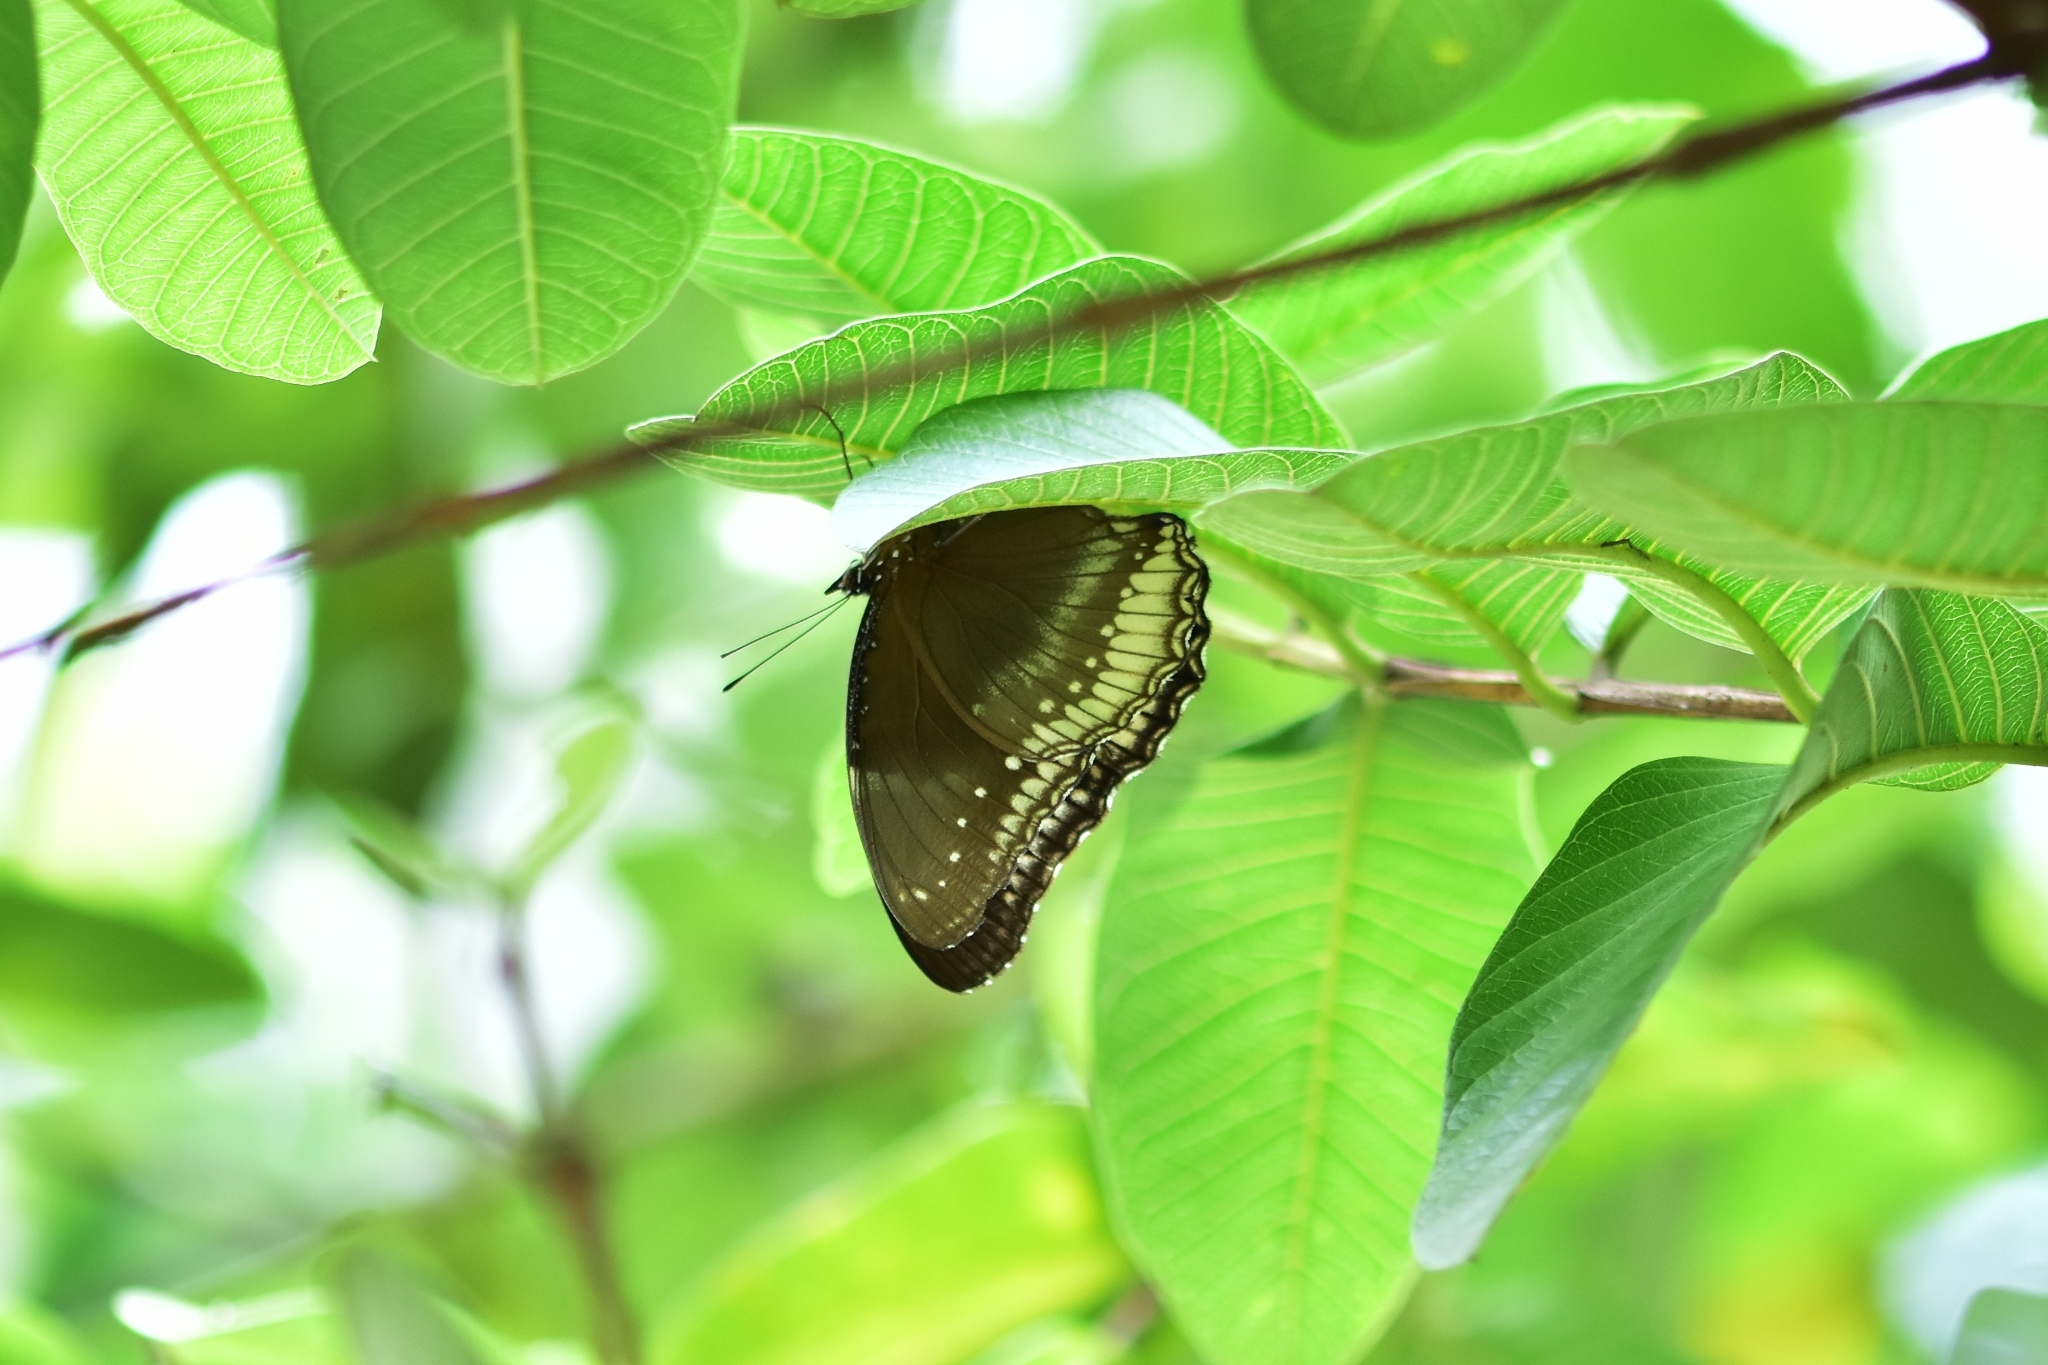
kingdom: Animalia
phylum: Arthropoda
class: Insecta
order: Lepidoptera
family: Nymphalidae
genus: Hypolimnas
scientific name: Hypolimnas bolina
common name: Great eggfly
